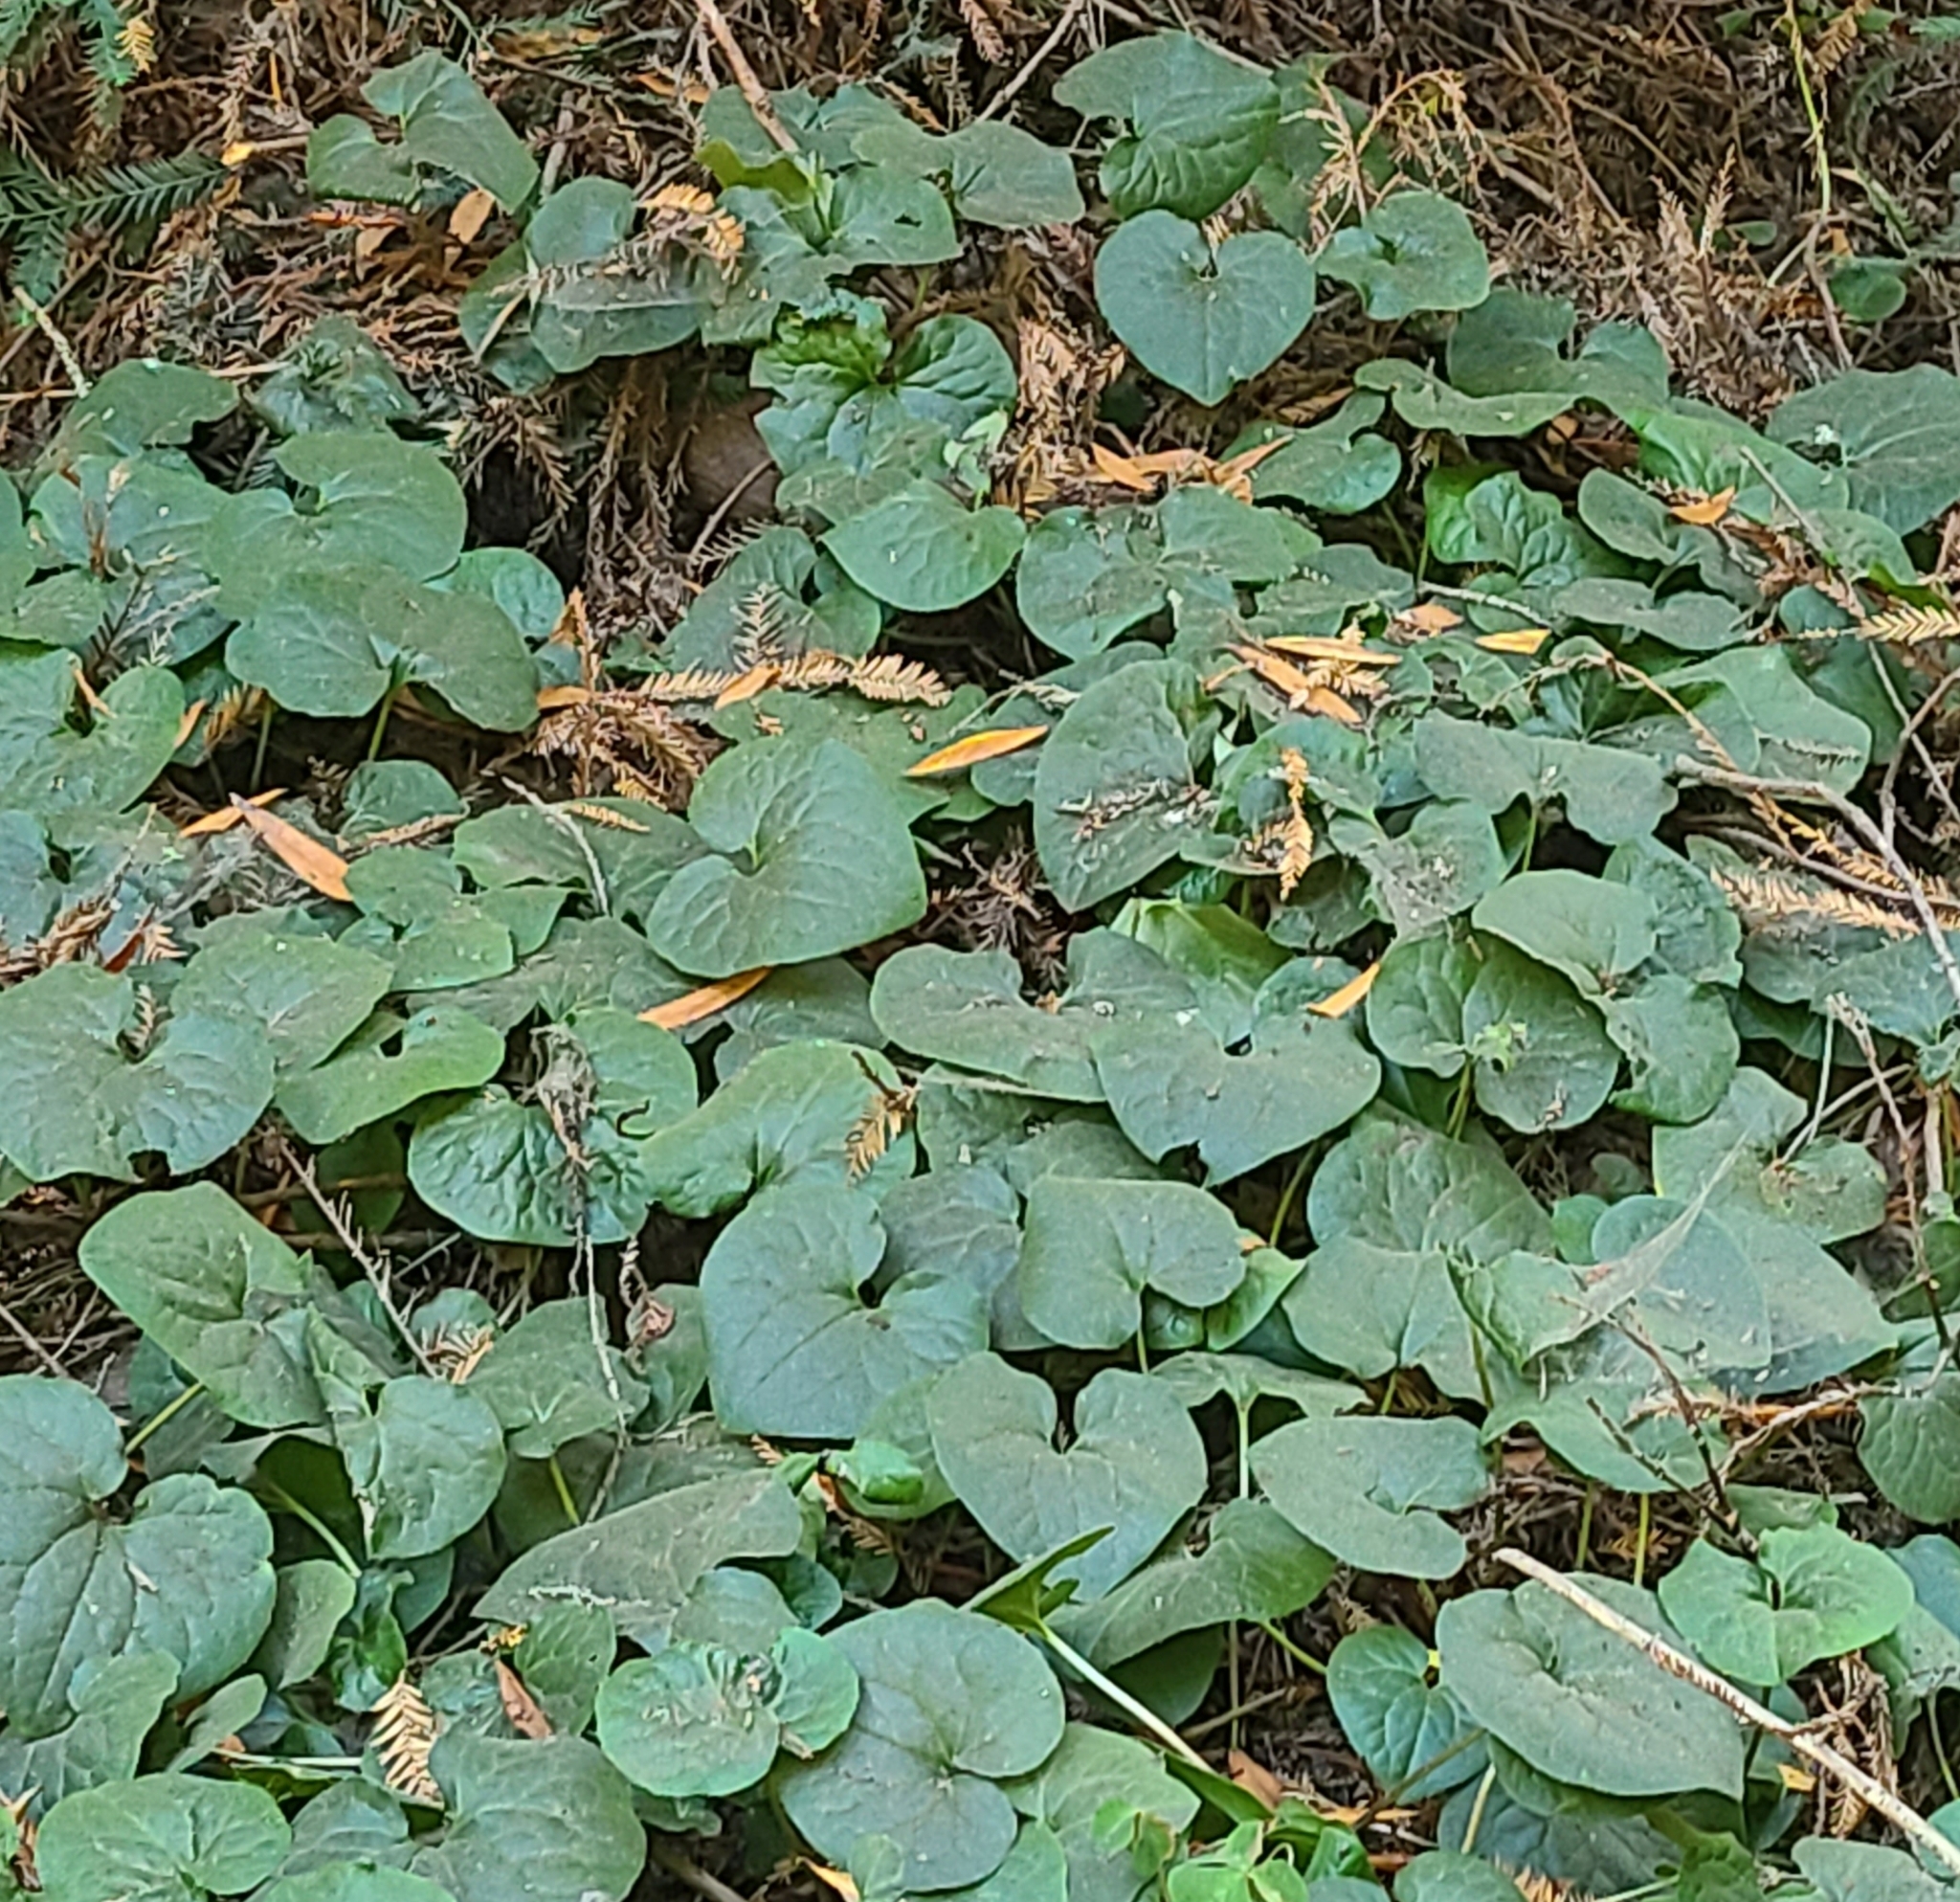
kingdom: Plantae
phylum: Tracheophyta
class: Magnoliopsida
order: Piperales
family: Aristolochiaceae
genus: Asarum
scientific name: Asarum caudatum
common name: Wild ginger
